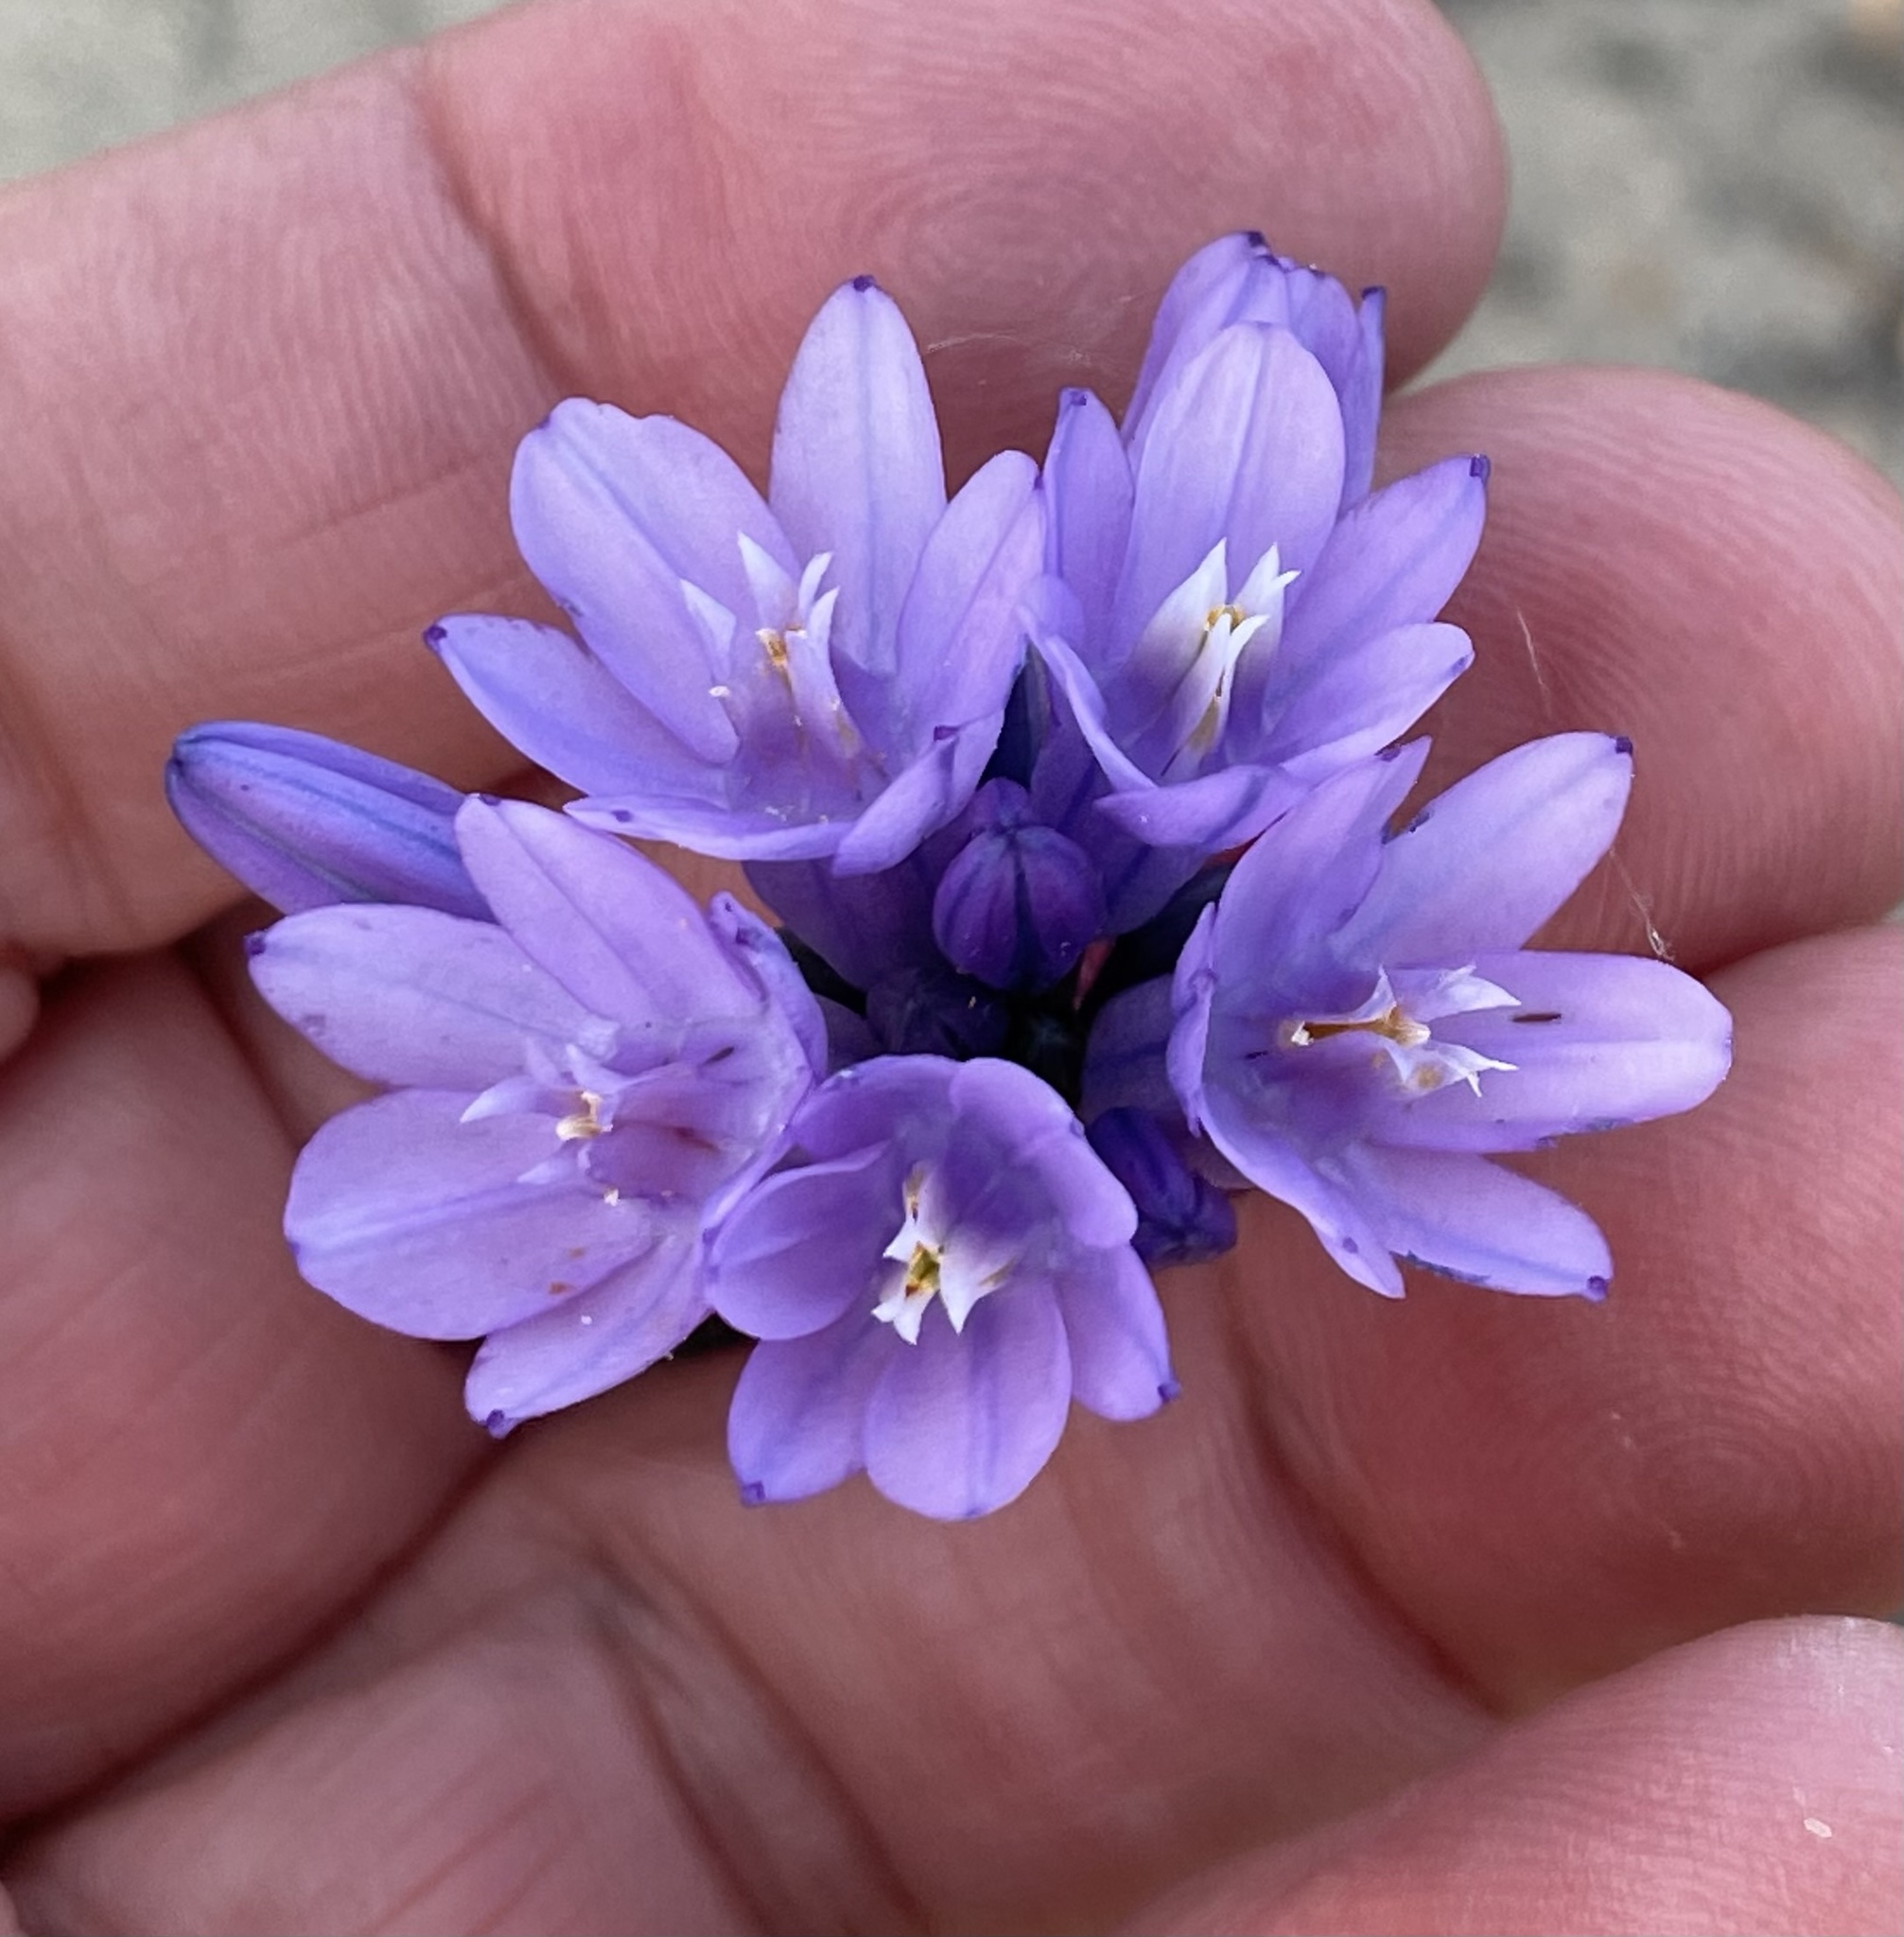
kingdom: Plantae
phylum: Tracheophyta
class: Liliopsida
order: Asparagales
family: Asparagaceae
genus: Dipterostemon
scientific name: Dipterostemon capitatus
